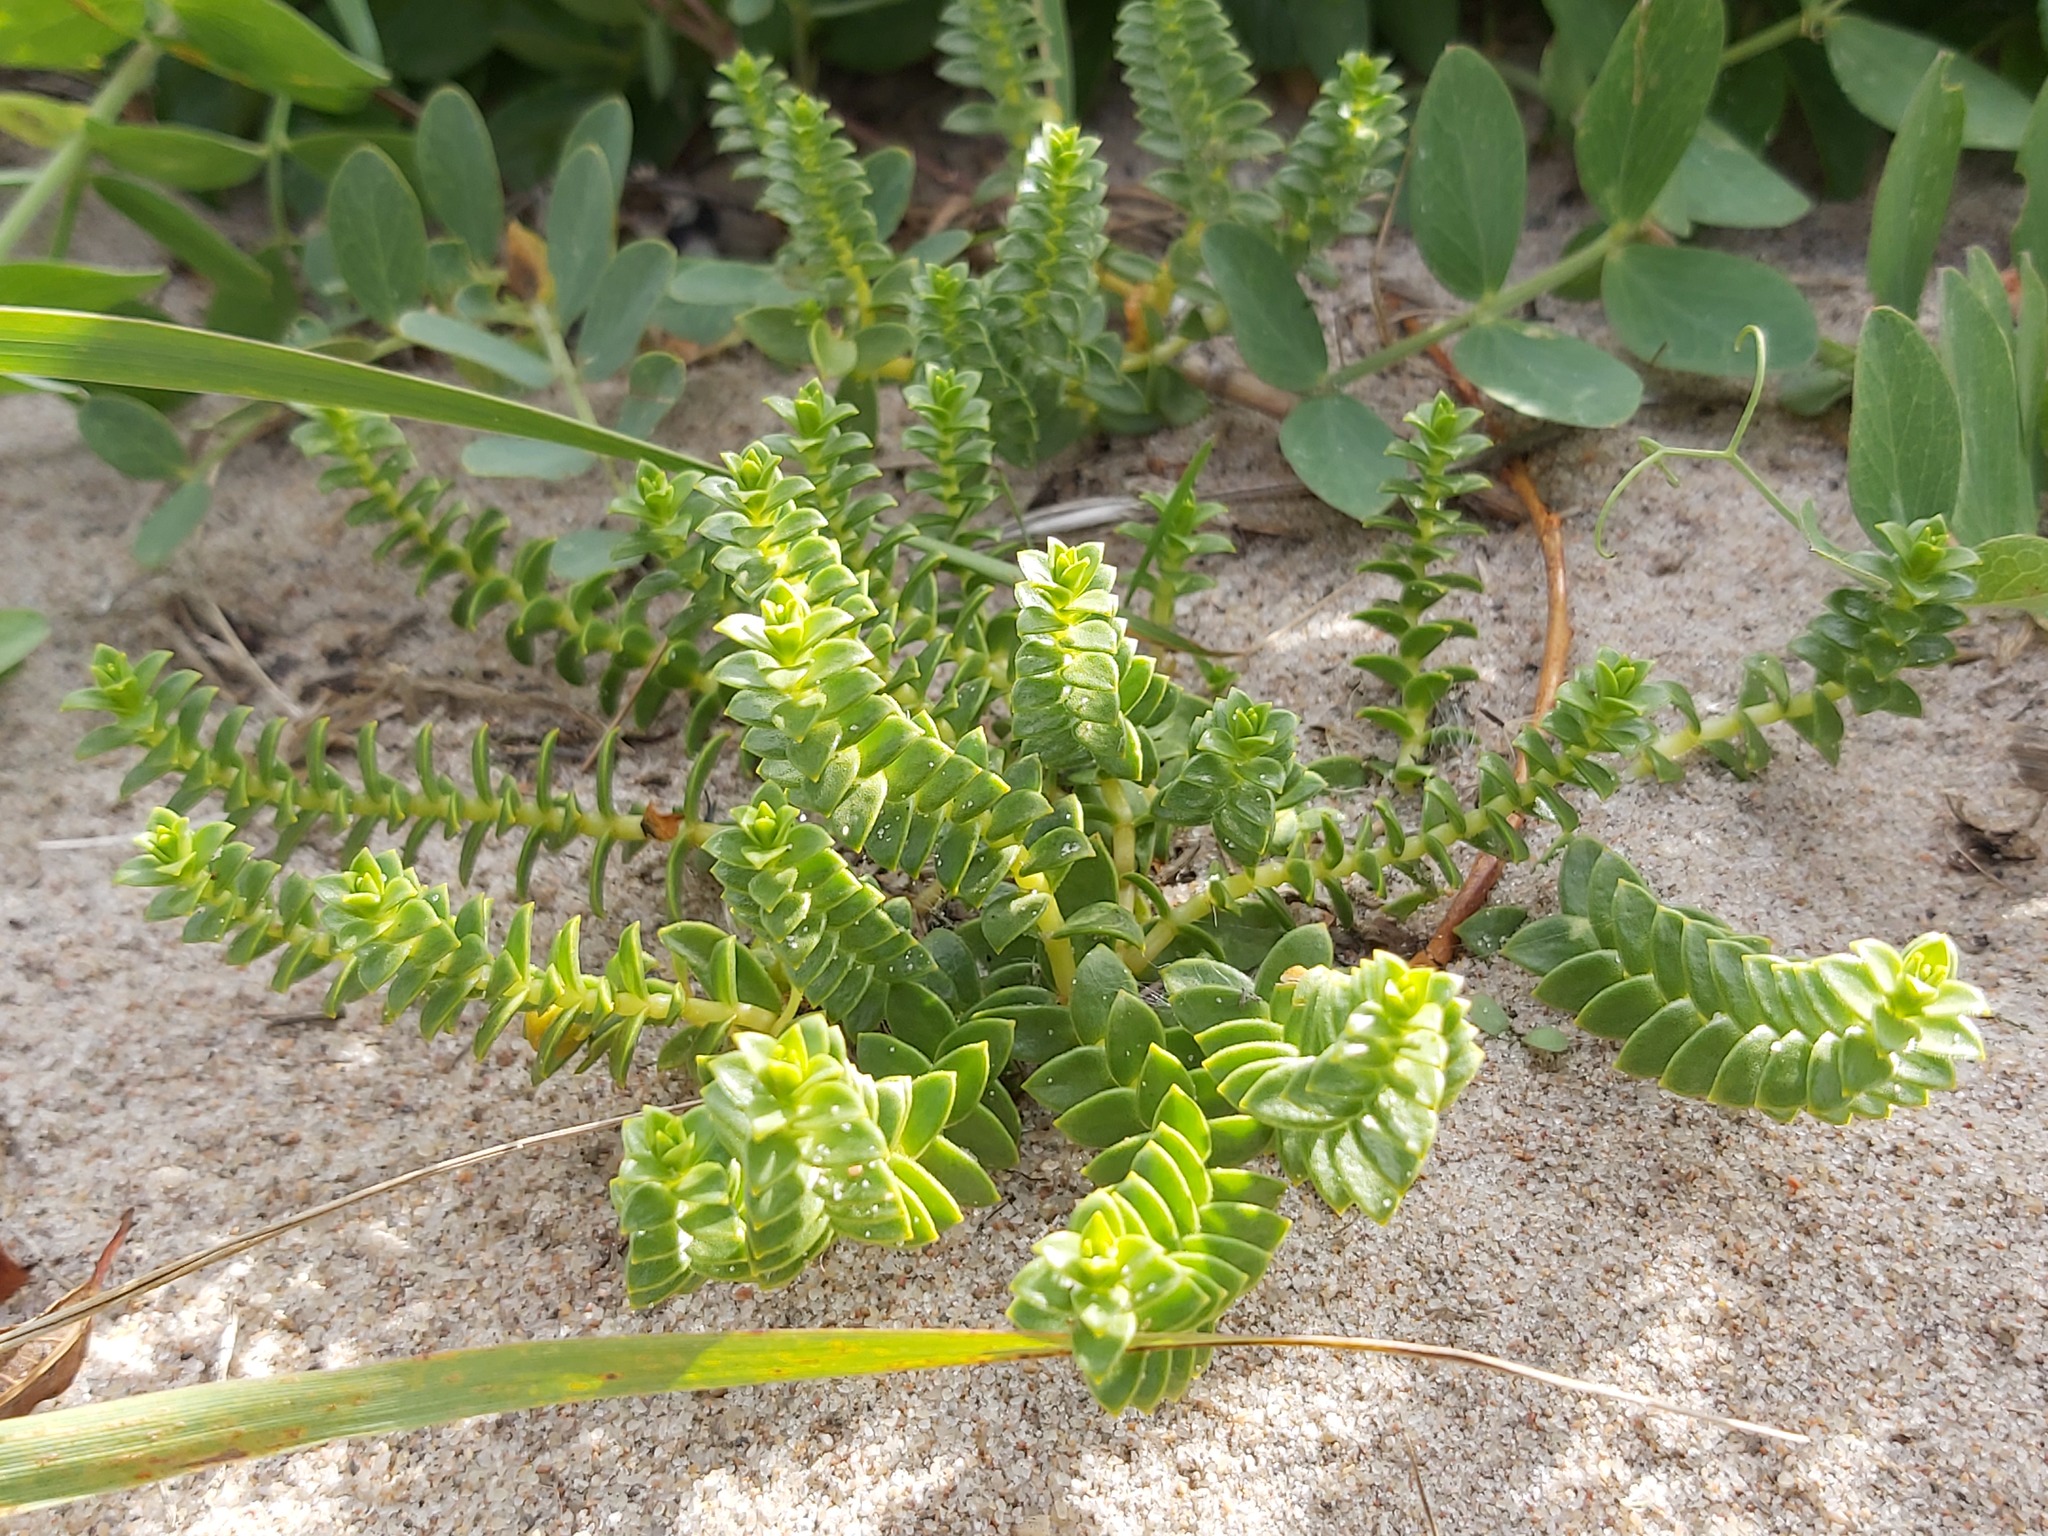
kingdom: Plantae
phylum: Tracheophyta
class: Magnoliopsida
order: Caryophyllales
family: Caryophyllaceae
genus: Honckenya
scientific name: Honckenya peploides
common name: Sea sandwort
